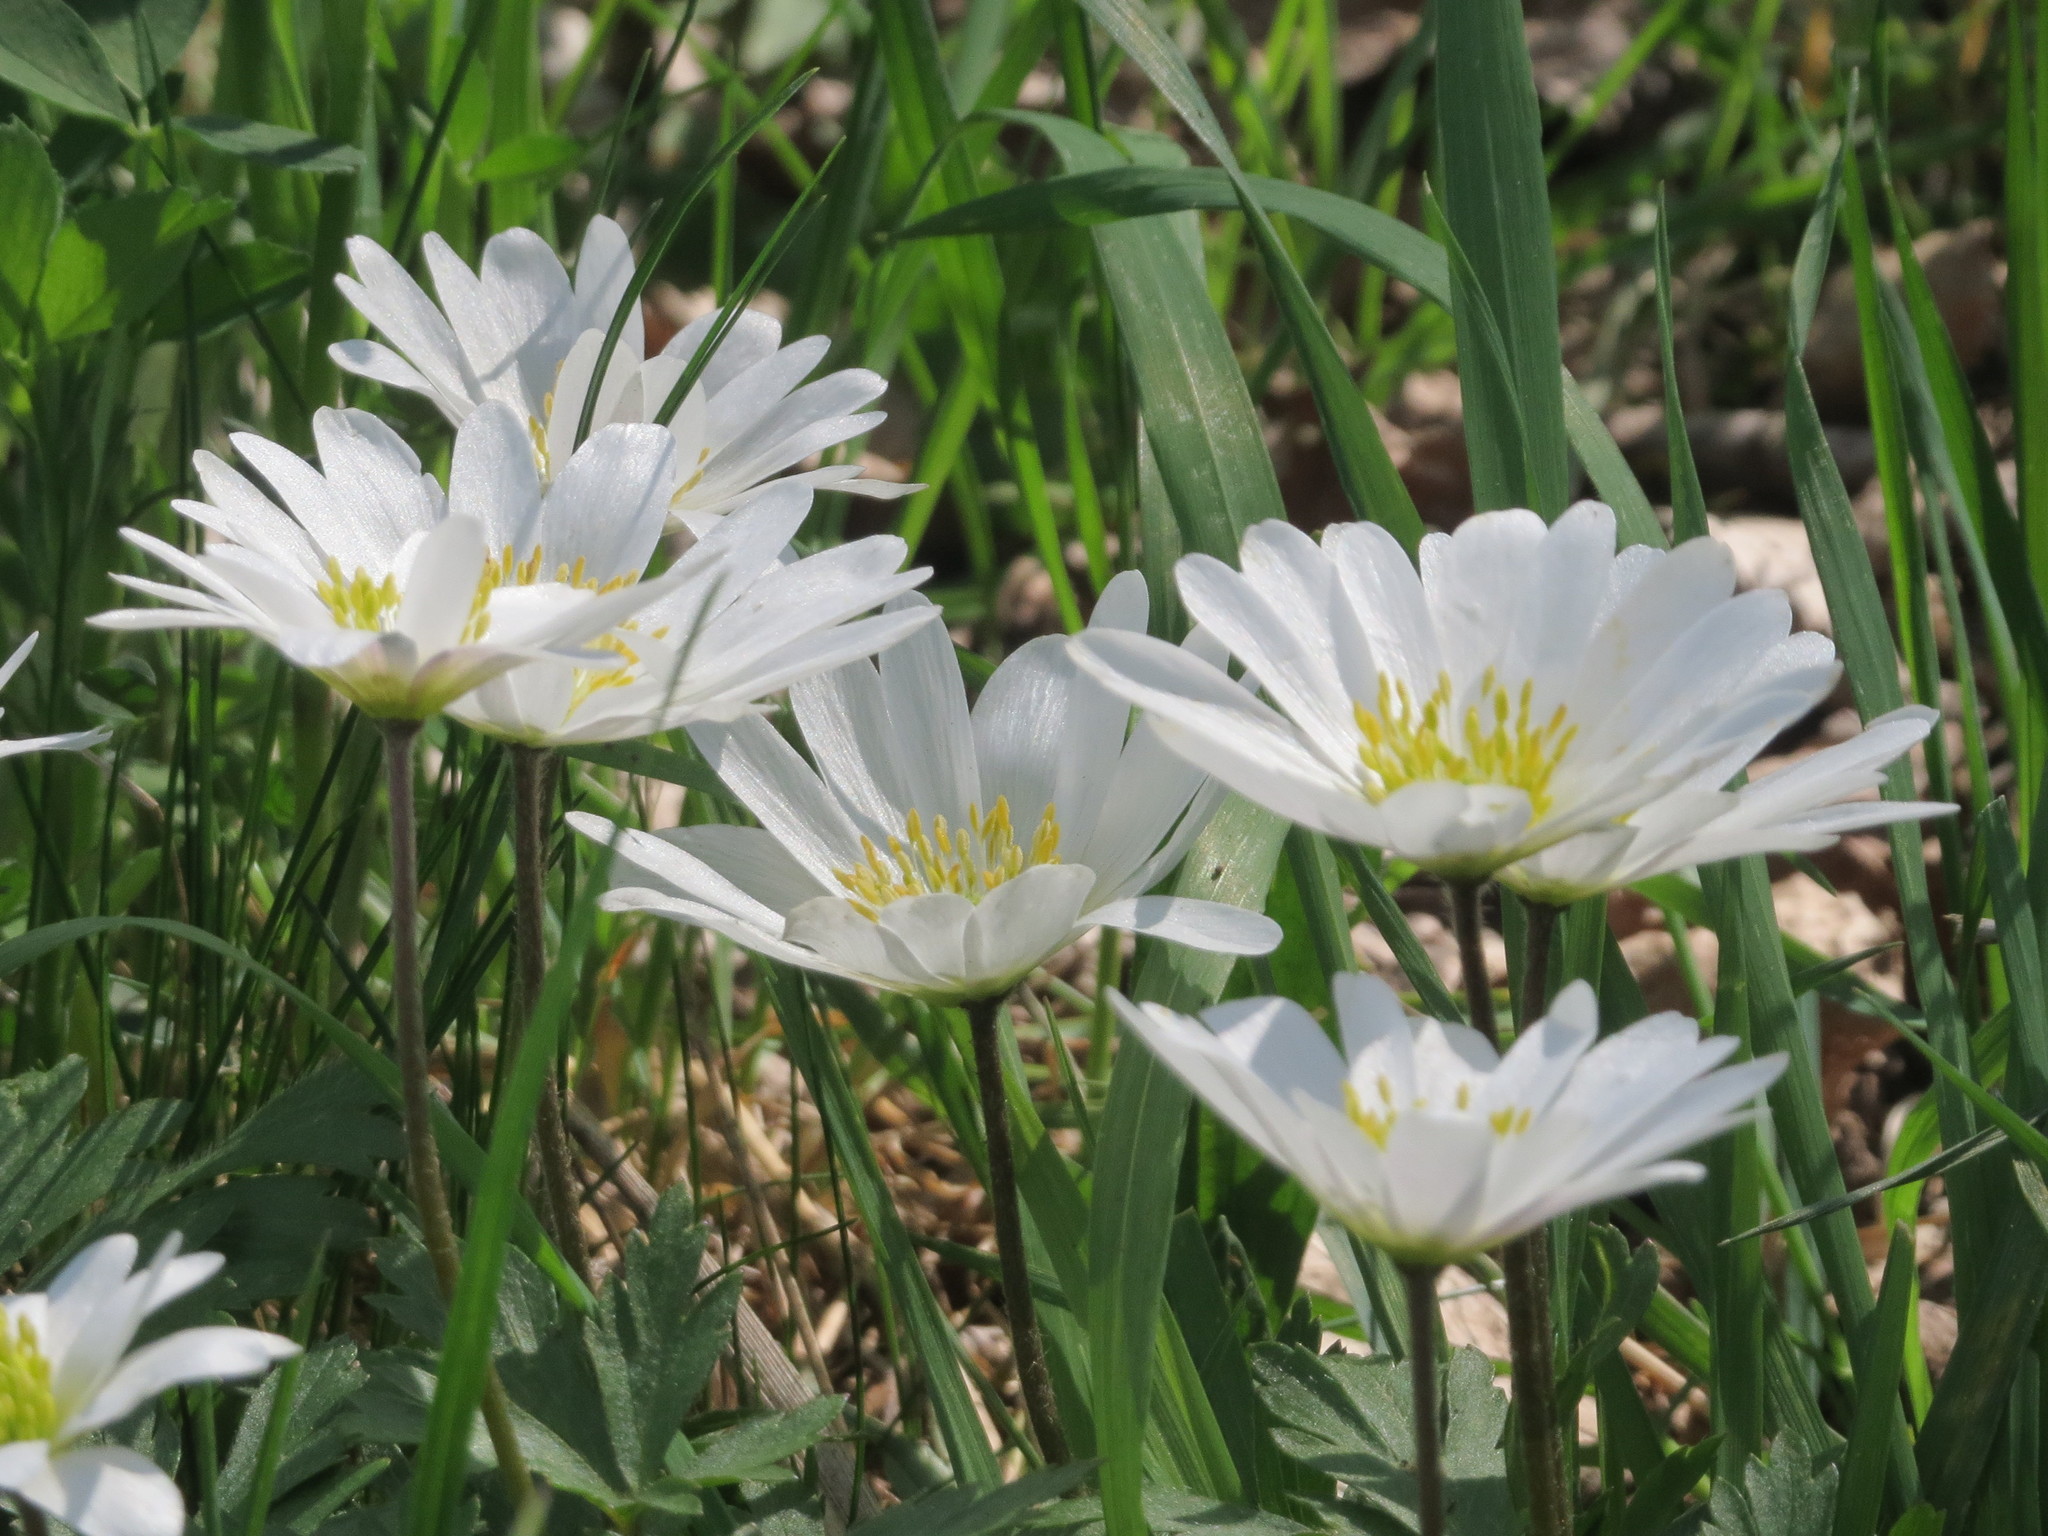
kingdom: Plantae
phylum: Tracheophyta
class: Magnoliopsida
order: Ranunculales
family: Ranunculaceae
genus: Anemone
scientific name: Anemone nemorosa
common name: Wood anemone
